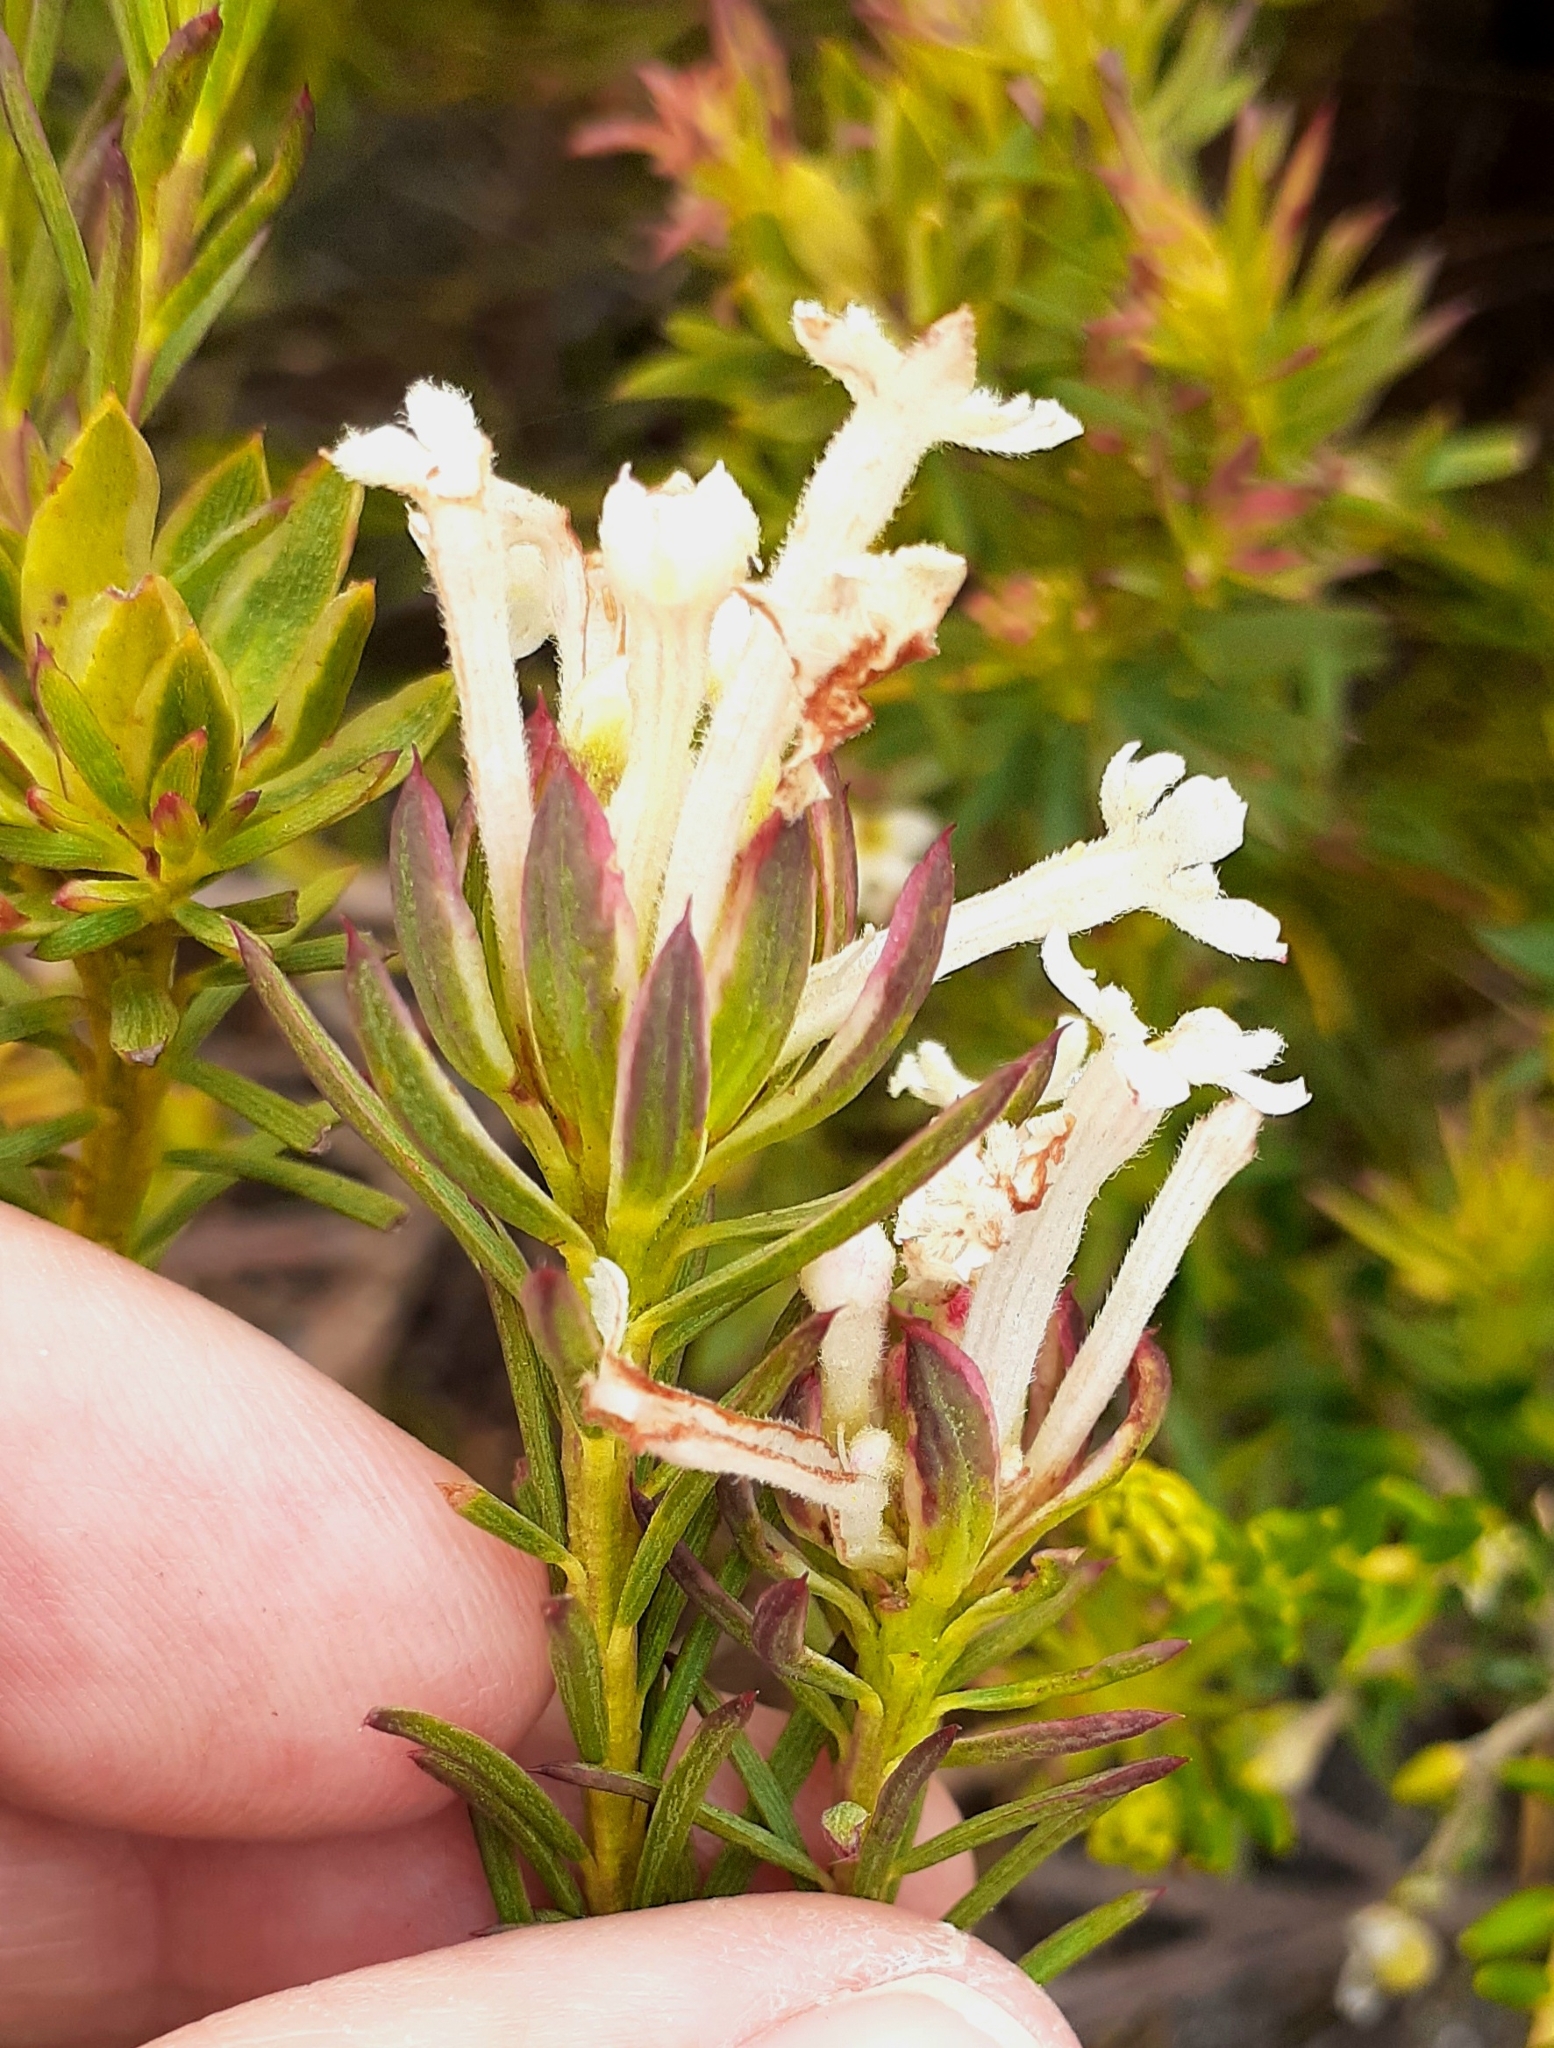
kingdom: Plantae
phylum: Tracheophyta
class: Magnoliopsida
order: Malvales
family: Thymelaeaceae
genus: Gnidia
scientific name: Gnidia pinifolia
